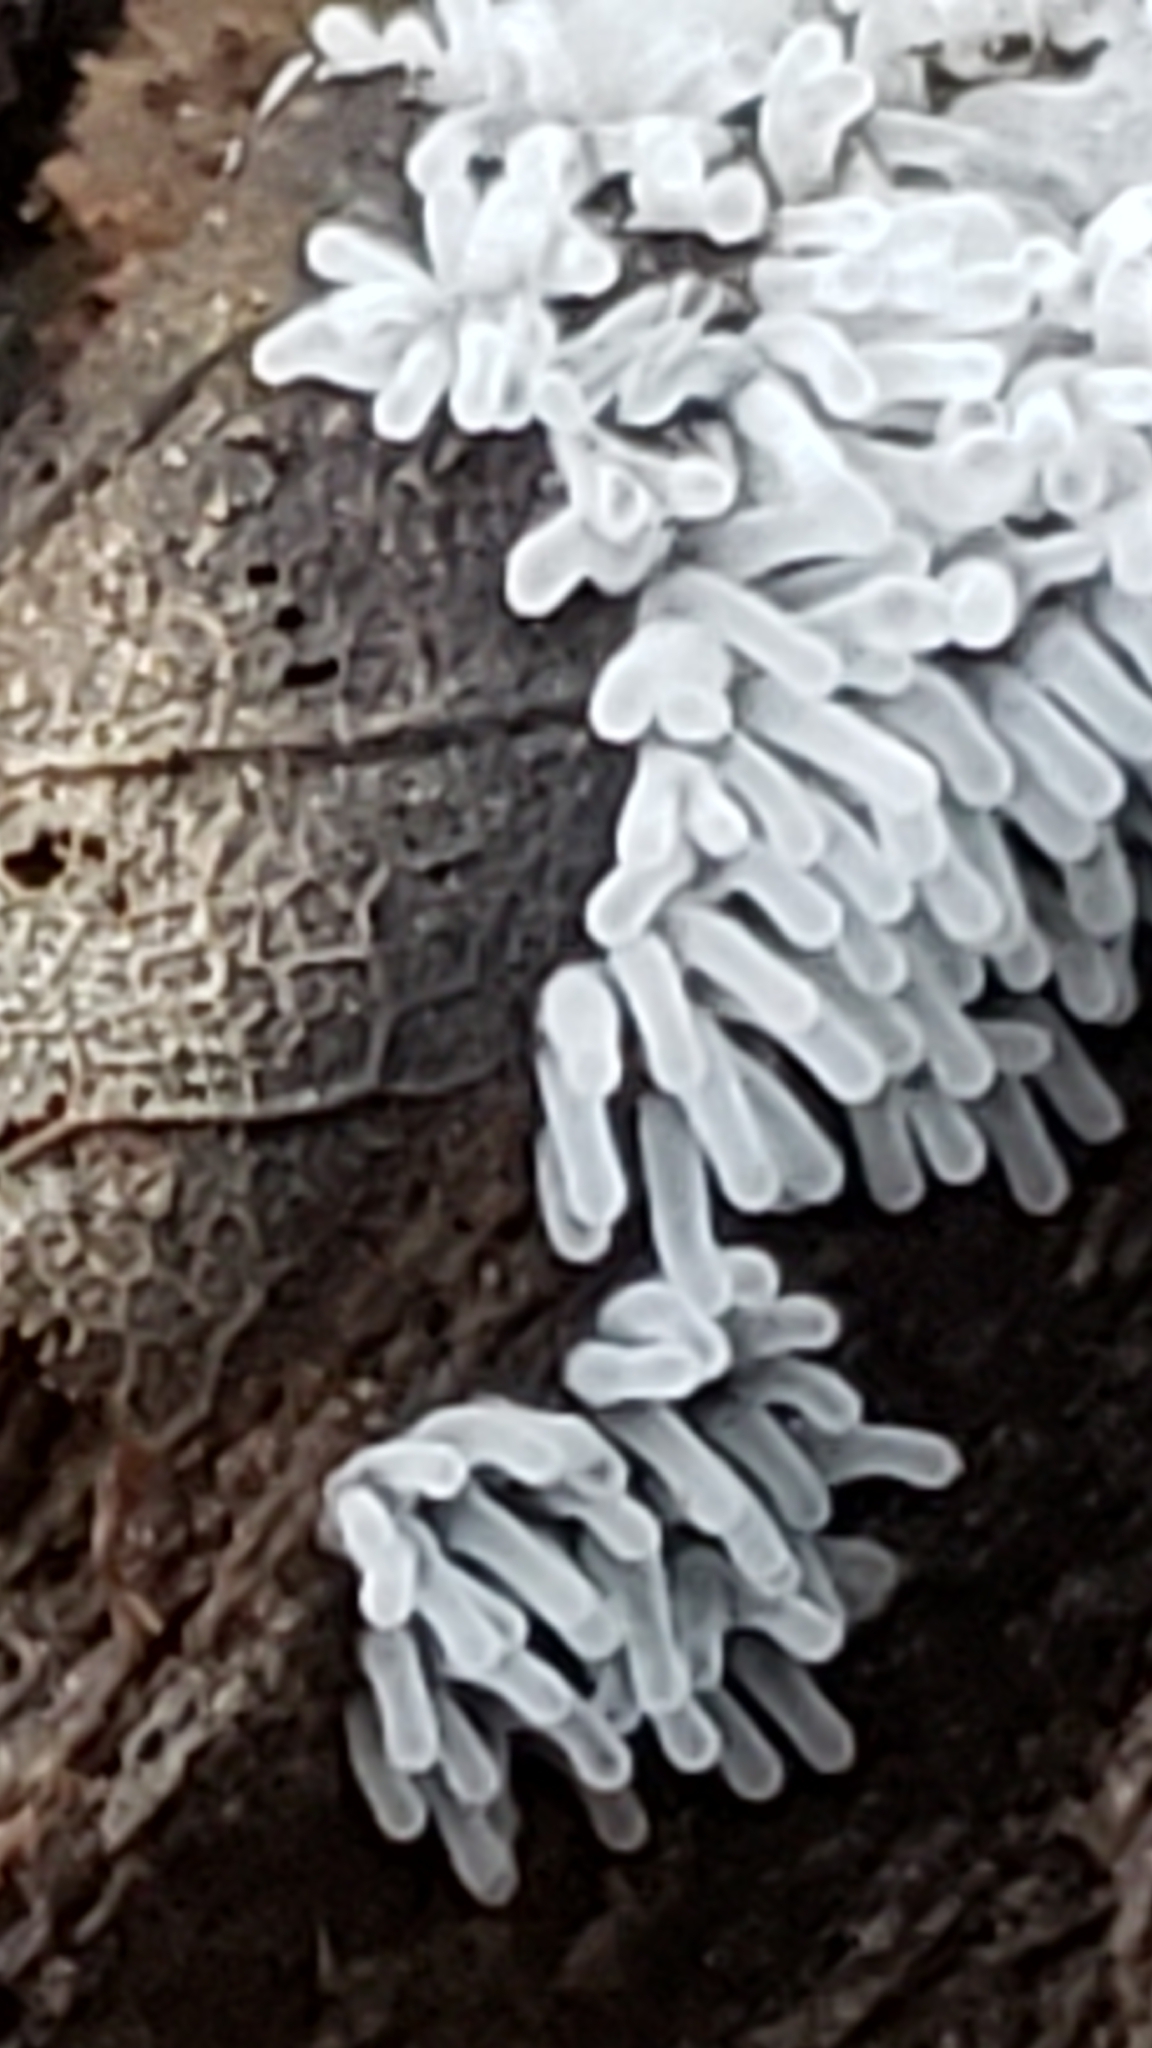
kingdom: Protozoa
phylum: Mycetozoa
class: Protosteliomycetes
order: Ceratiomyxales
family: Ceratiomyxaceae
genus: Ceratiomyxa
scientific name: Ceratiomyxa fruticulosa
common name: Honeycomb coral slime mold
